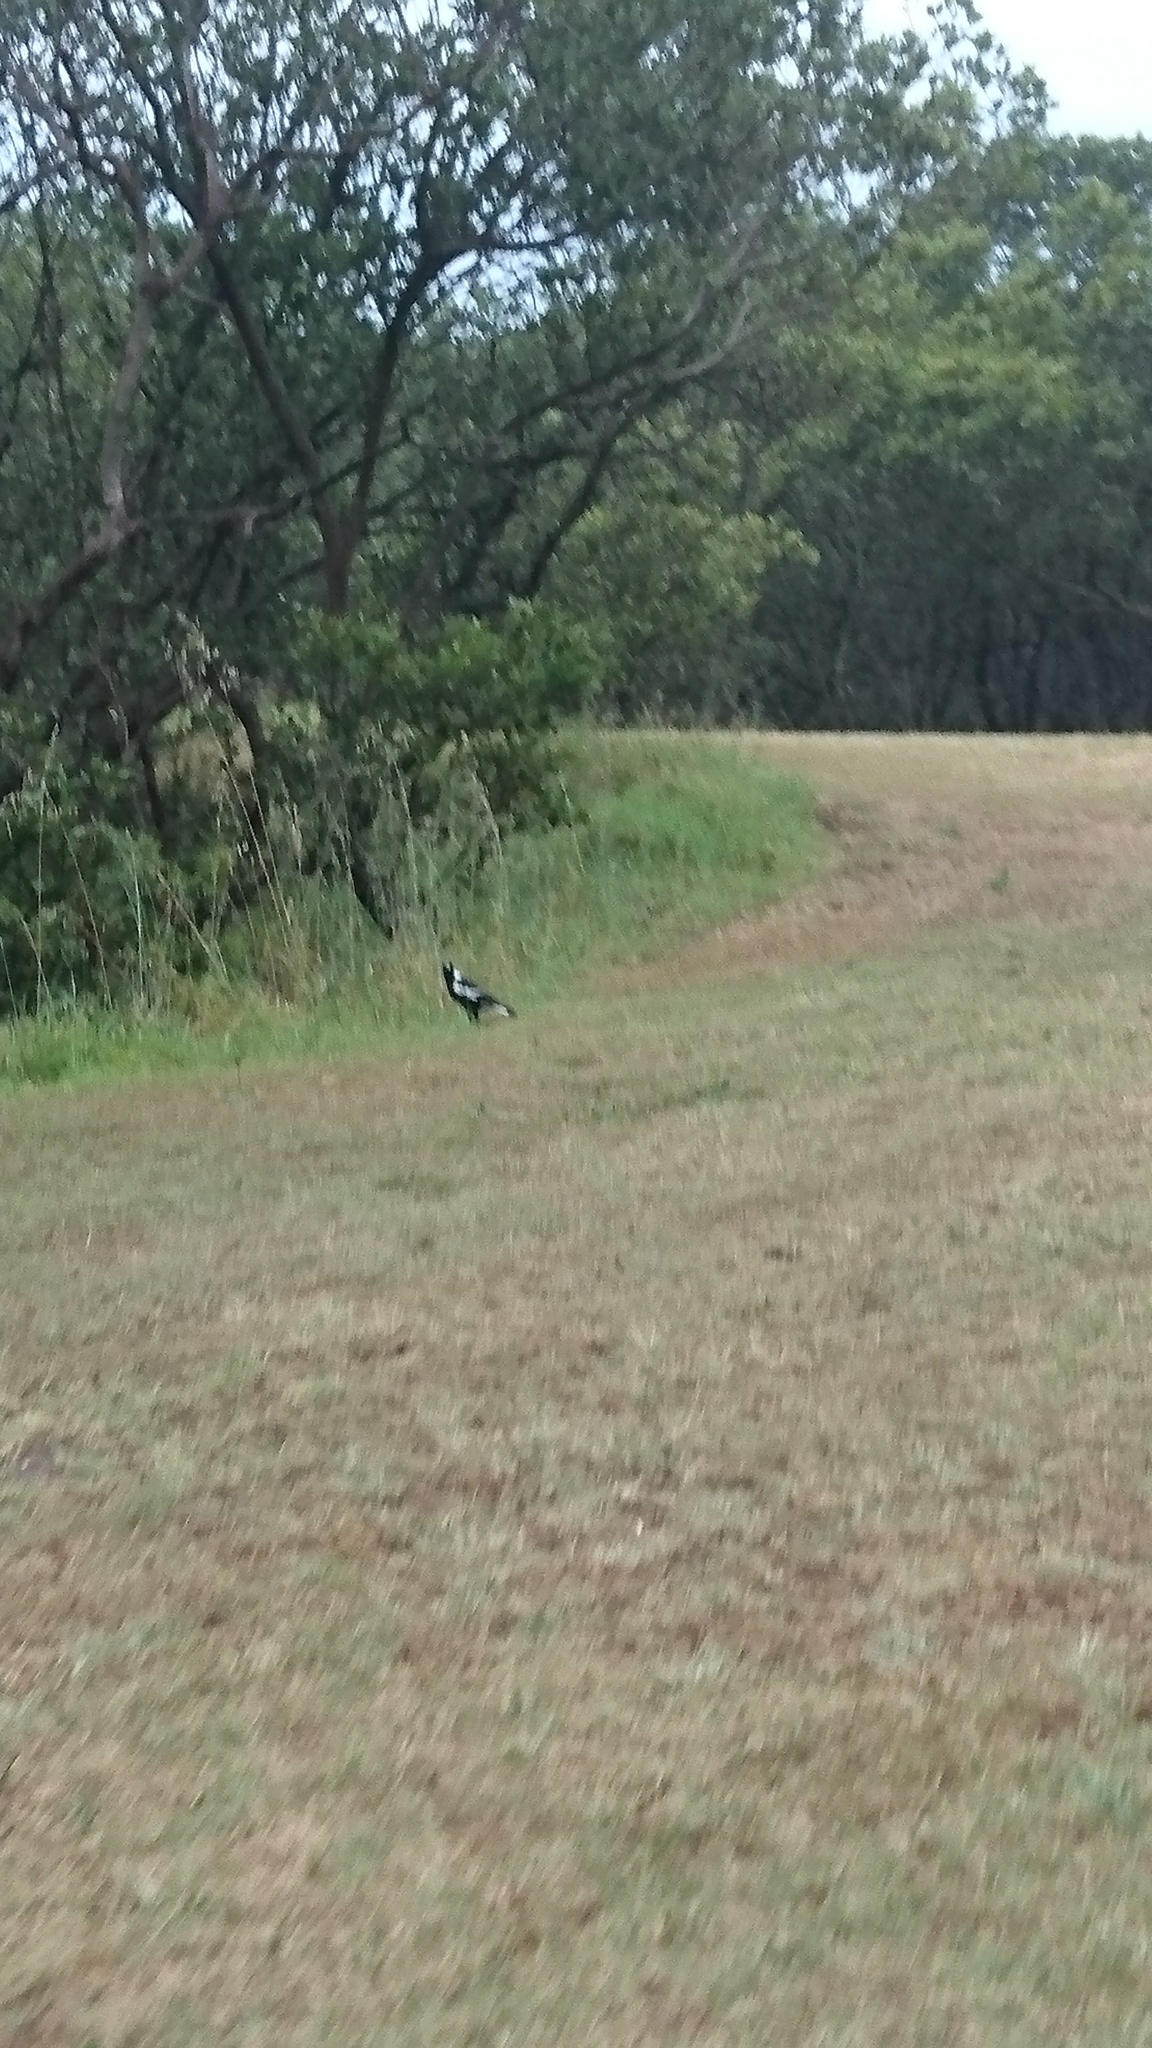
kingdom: Animalia
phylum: Chordata
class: Aves
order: Passeriformes
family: Cracticidae
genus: Gymnorhina
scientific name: Gymnorhina tibicen
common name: Australian magpie
